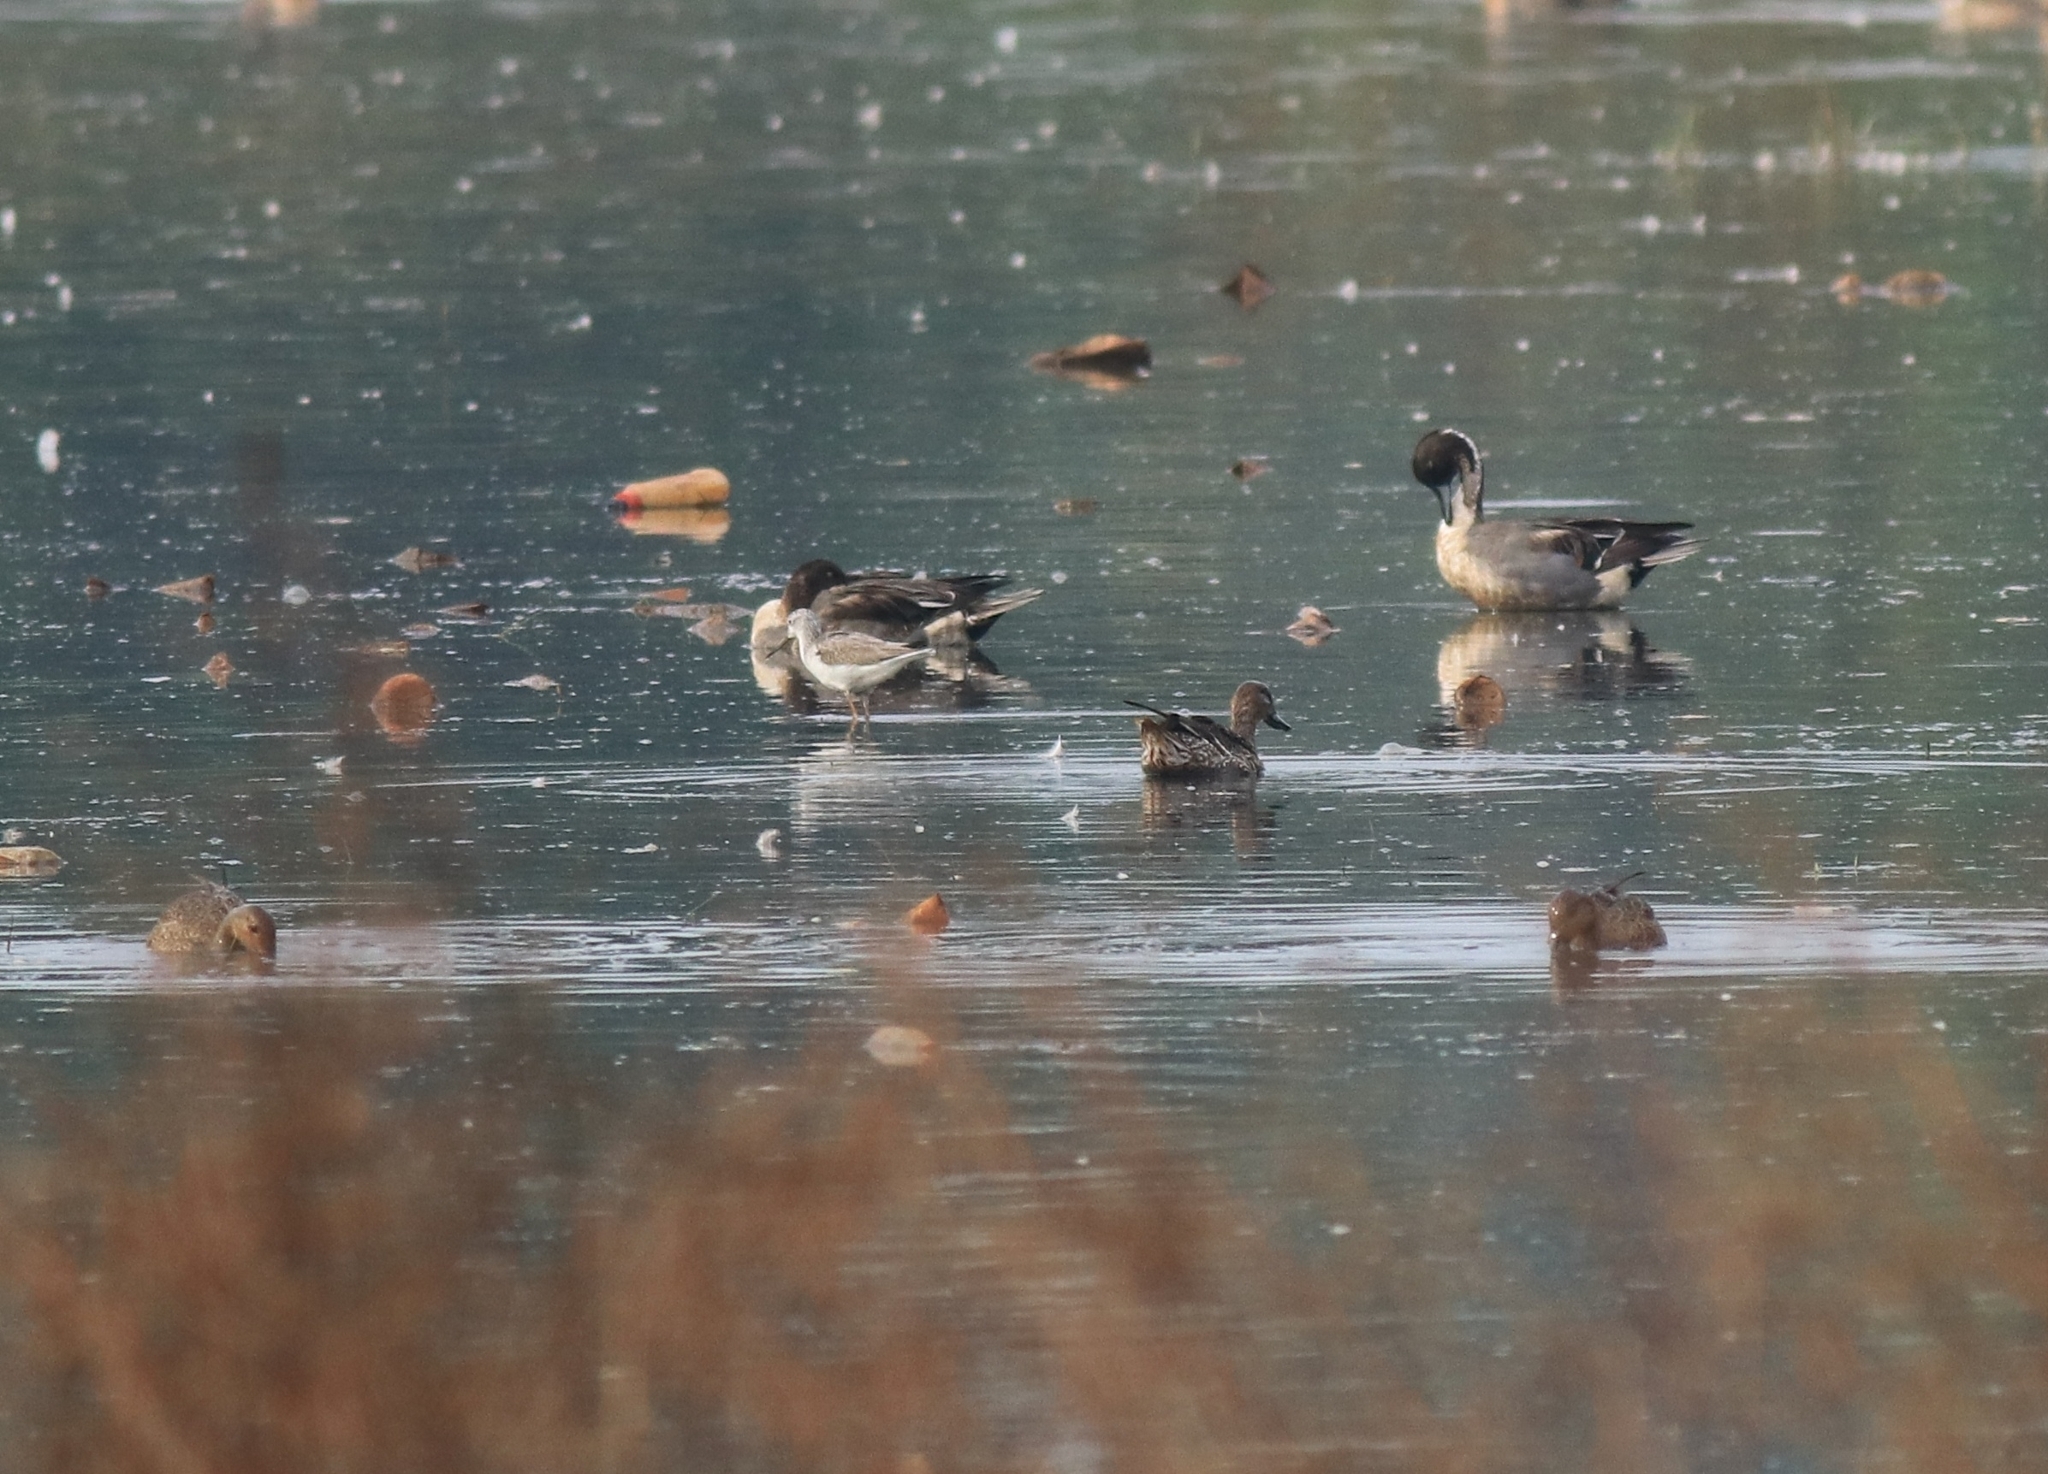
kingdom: Animalia
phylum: Chordata
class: Aves
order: Anseriformes
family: Anatidae
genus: Spatula
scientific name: Spatula querquedula
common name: Garganey
